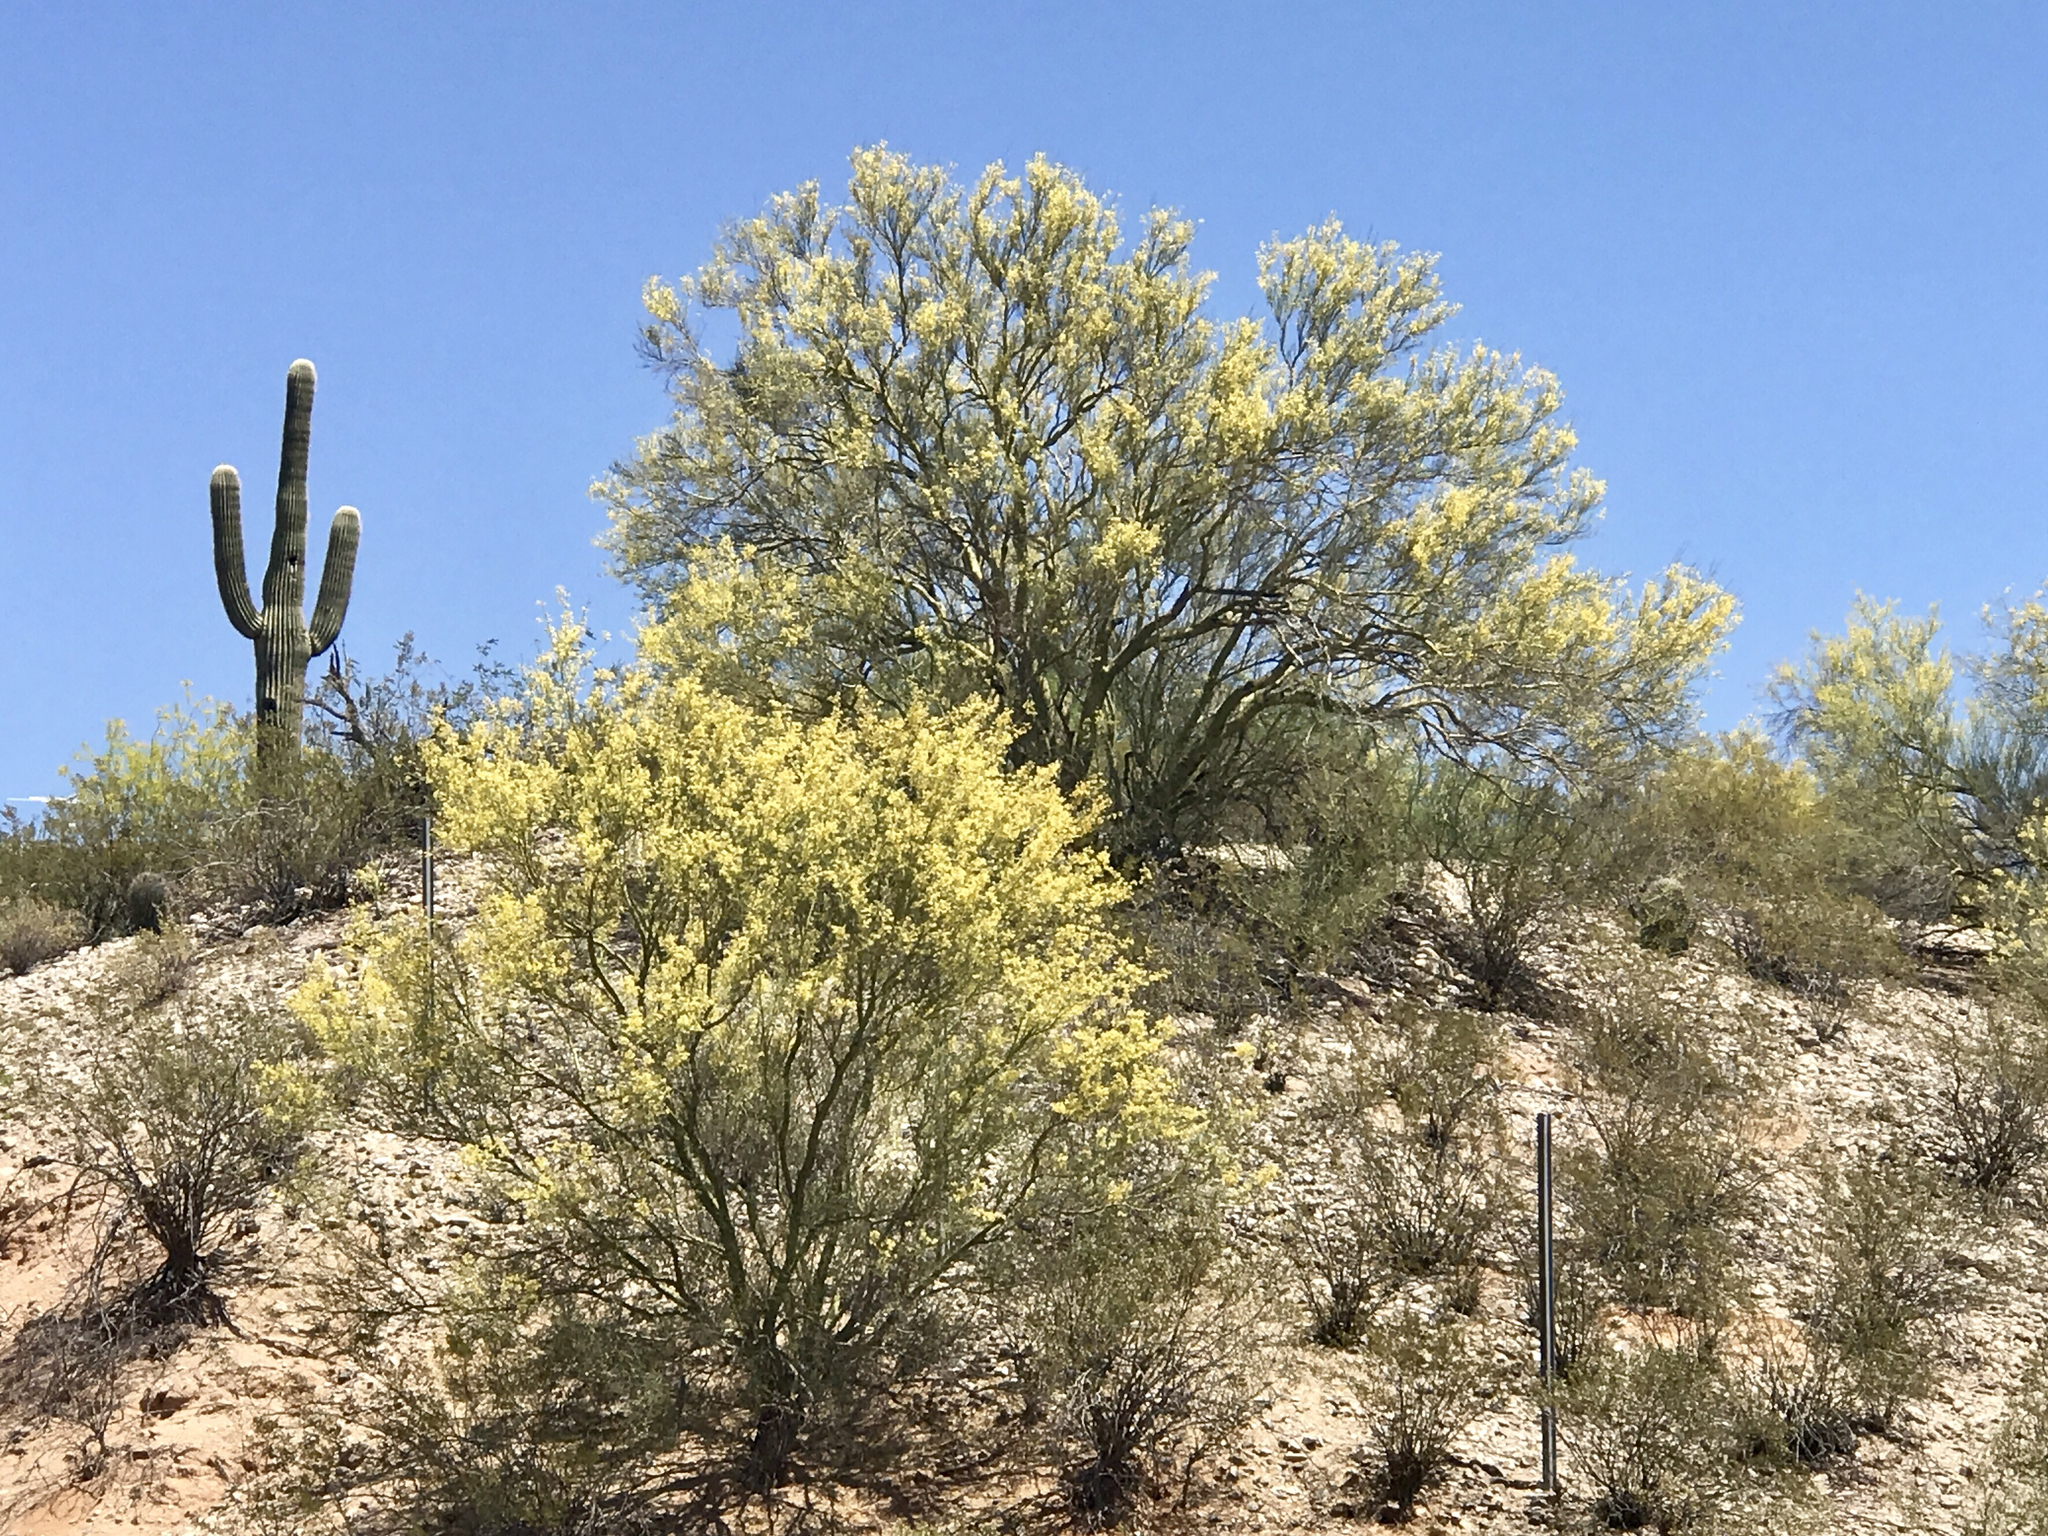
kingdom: Plantae
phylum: Tracheophyta
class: Magnoliopsida
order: Fabales
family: Fabaceae
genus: Parkinsonia
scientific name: Parkinsonia microphylla
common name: Yellow paloverde
